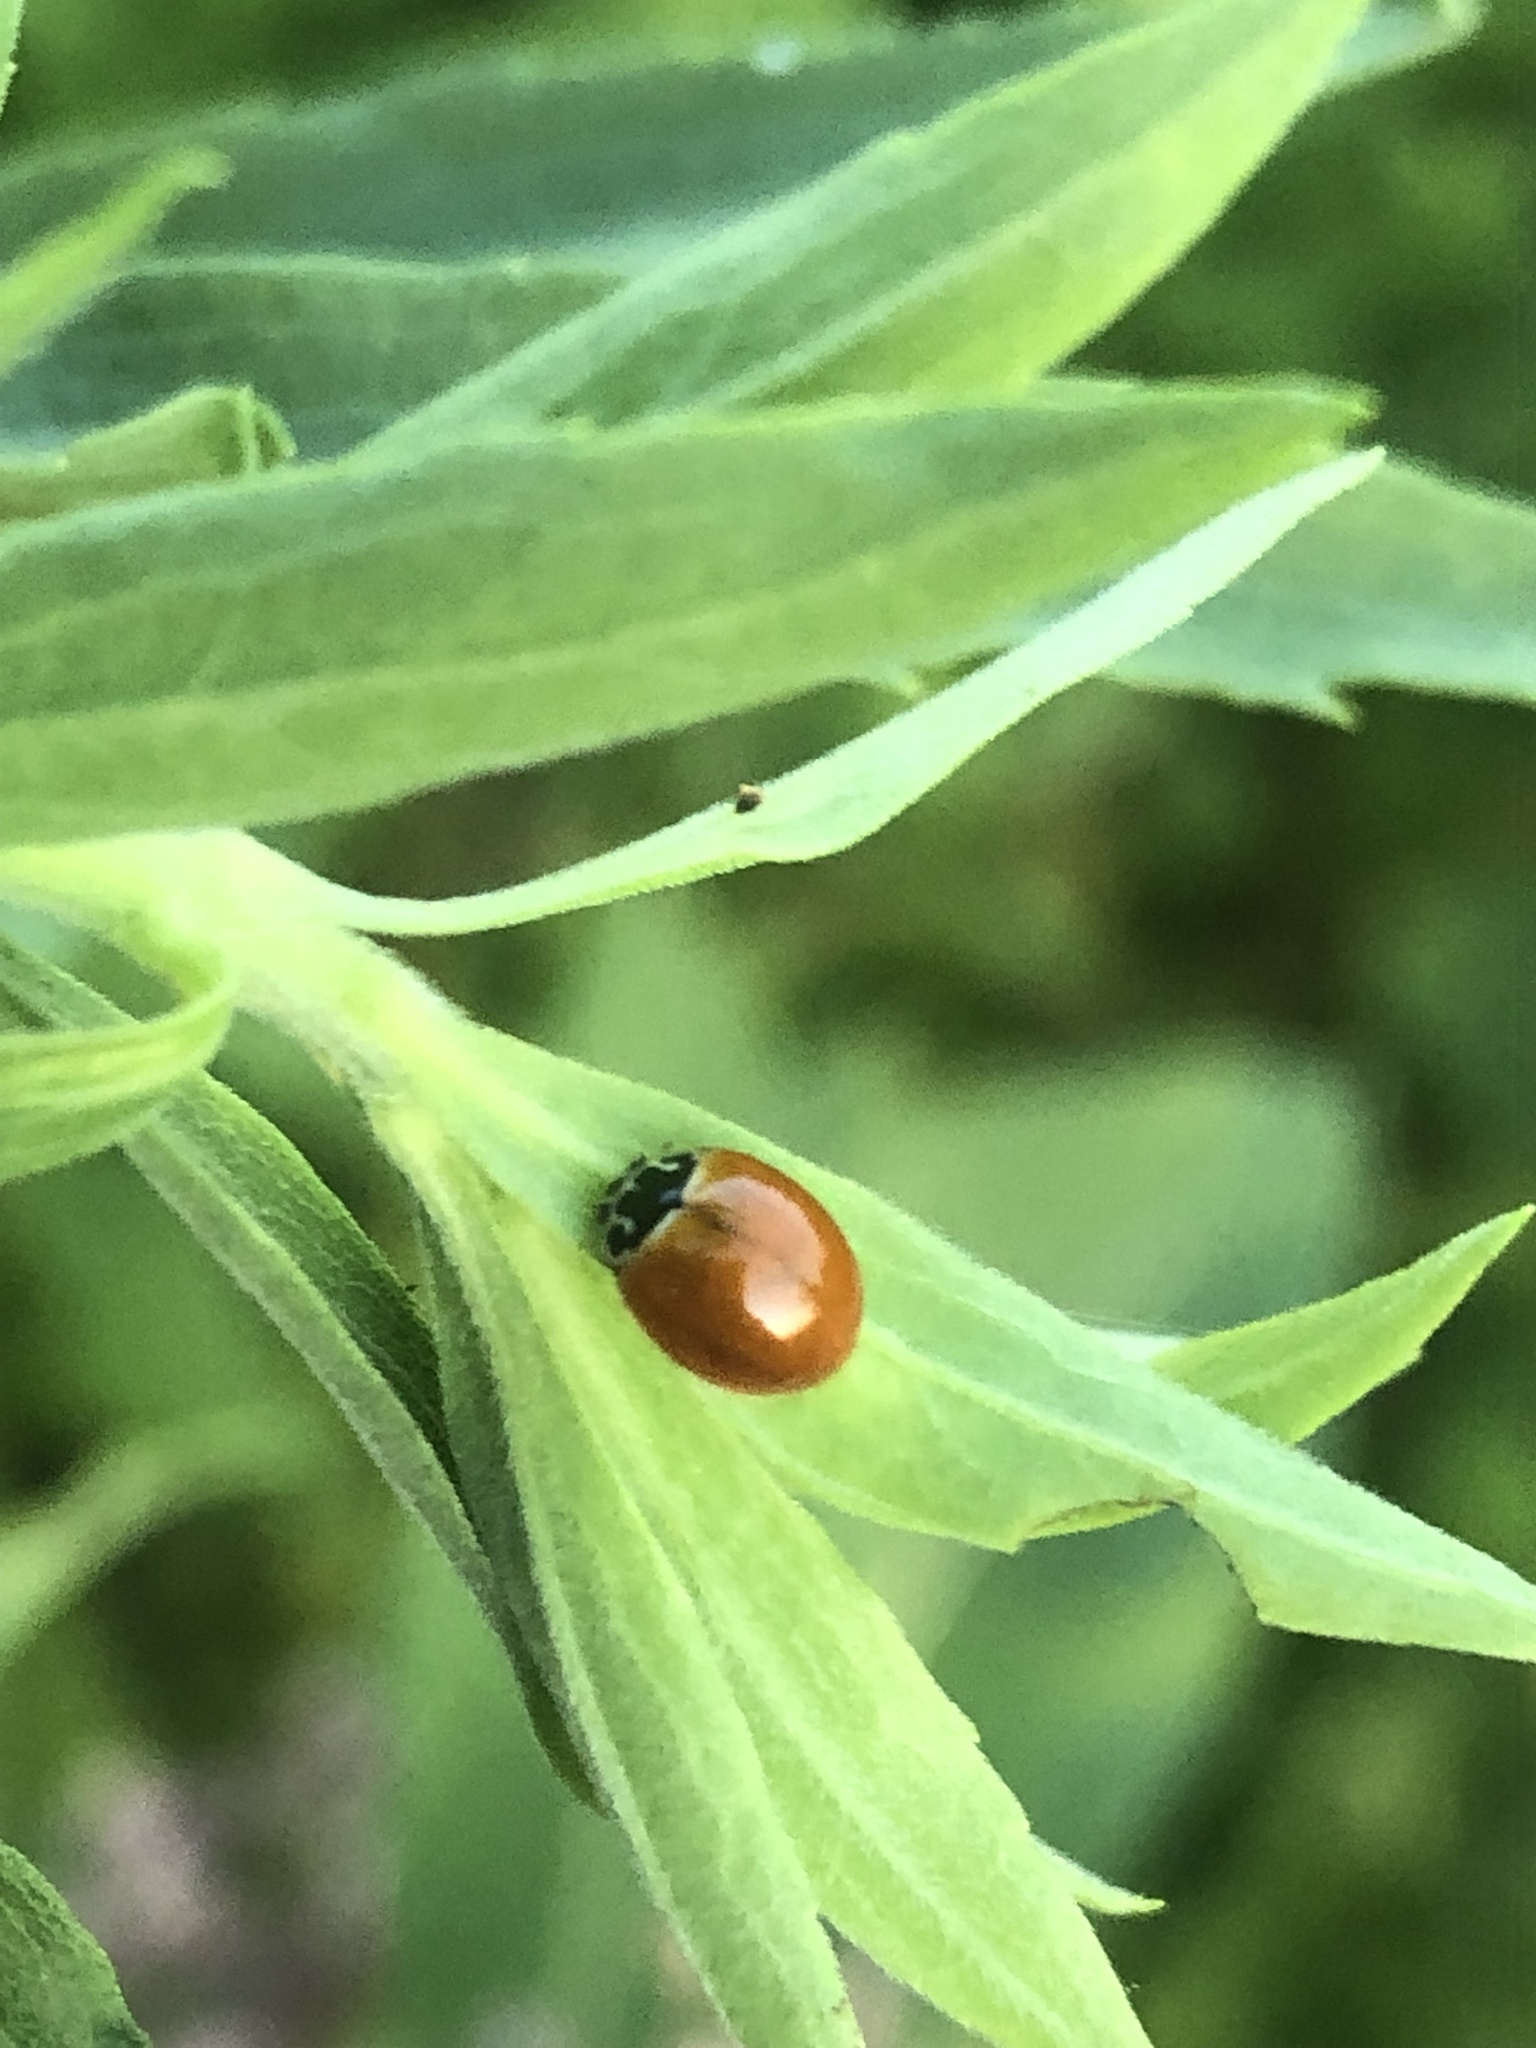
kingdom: Animalia
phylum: Arthropoda
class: Insecta
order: Coleoptera
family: Coccinellidae
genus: Cycloneda
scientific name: Cycloneda munda
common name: Polished lady beetle
